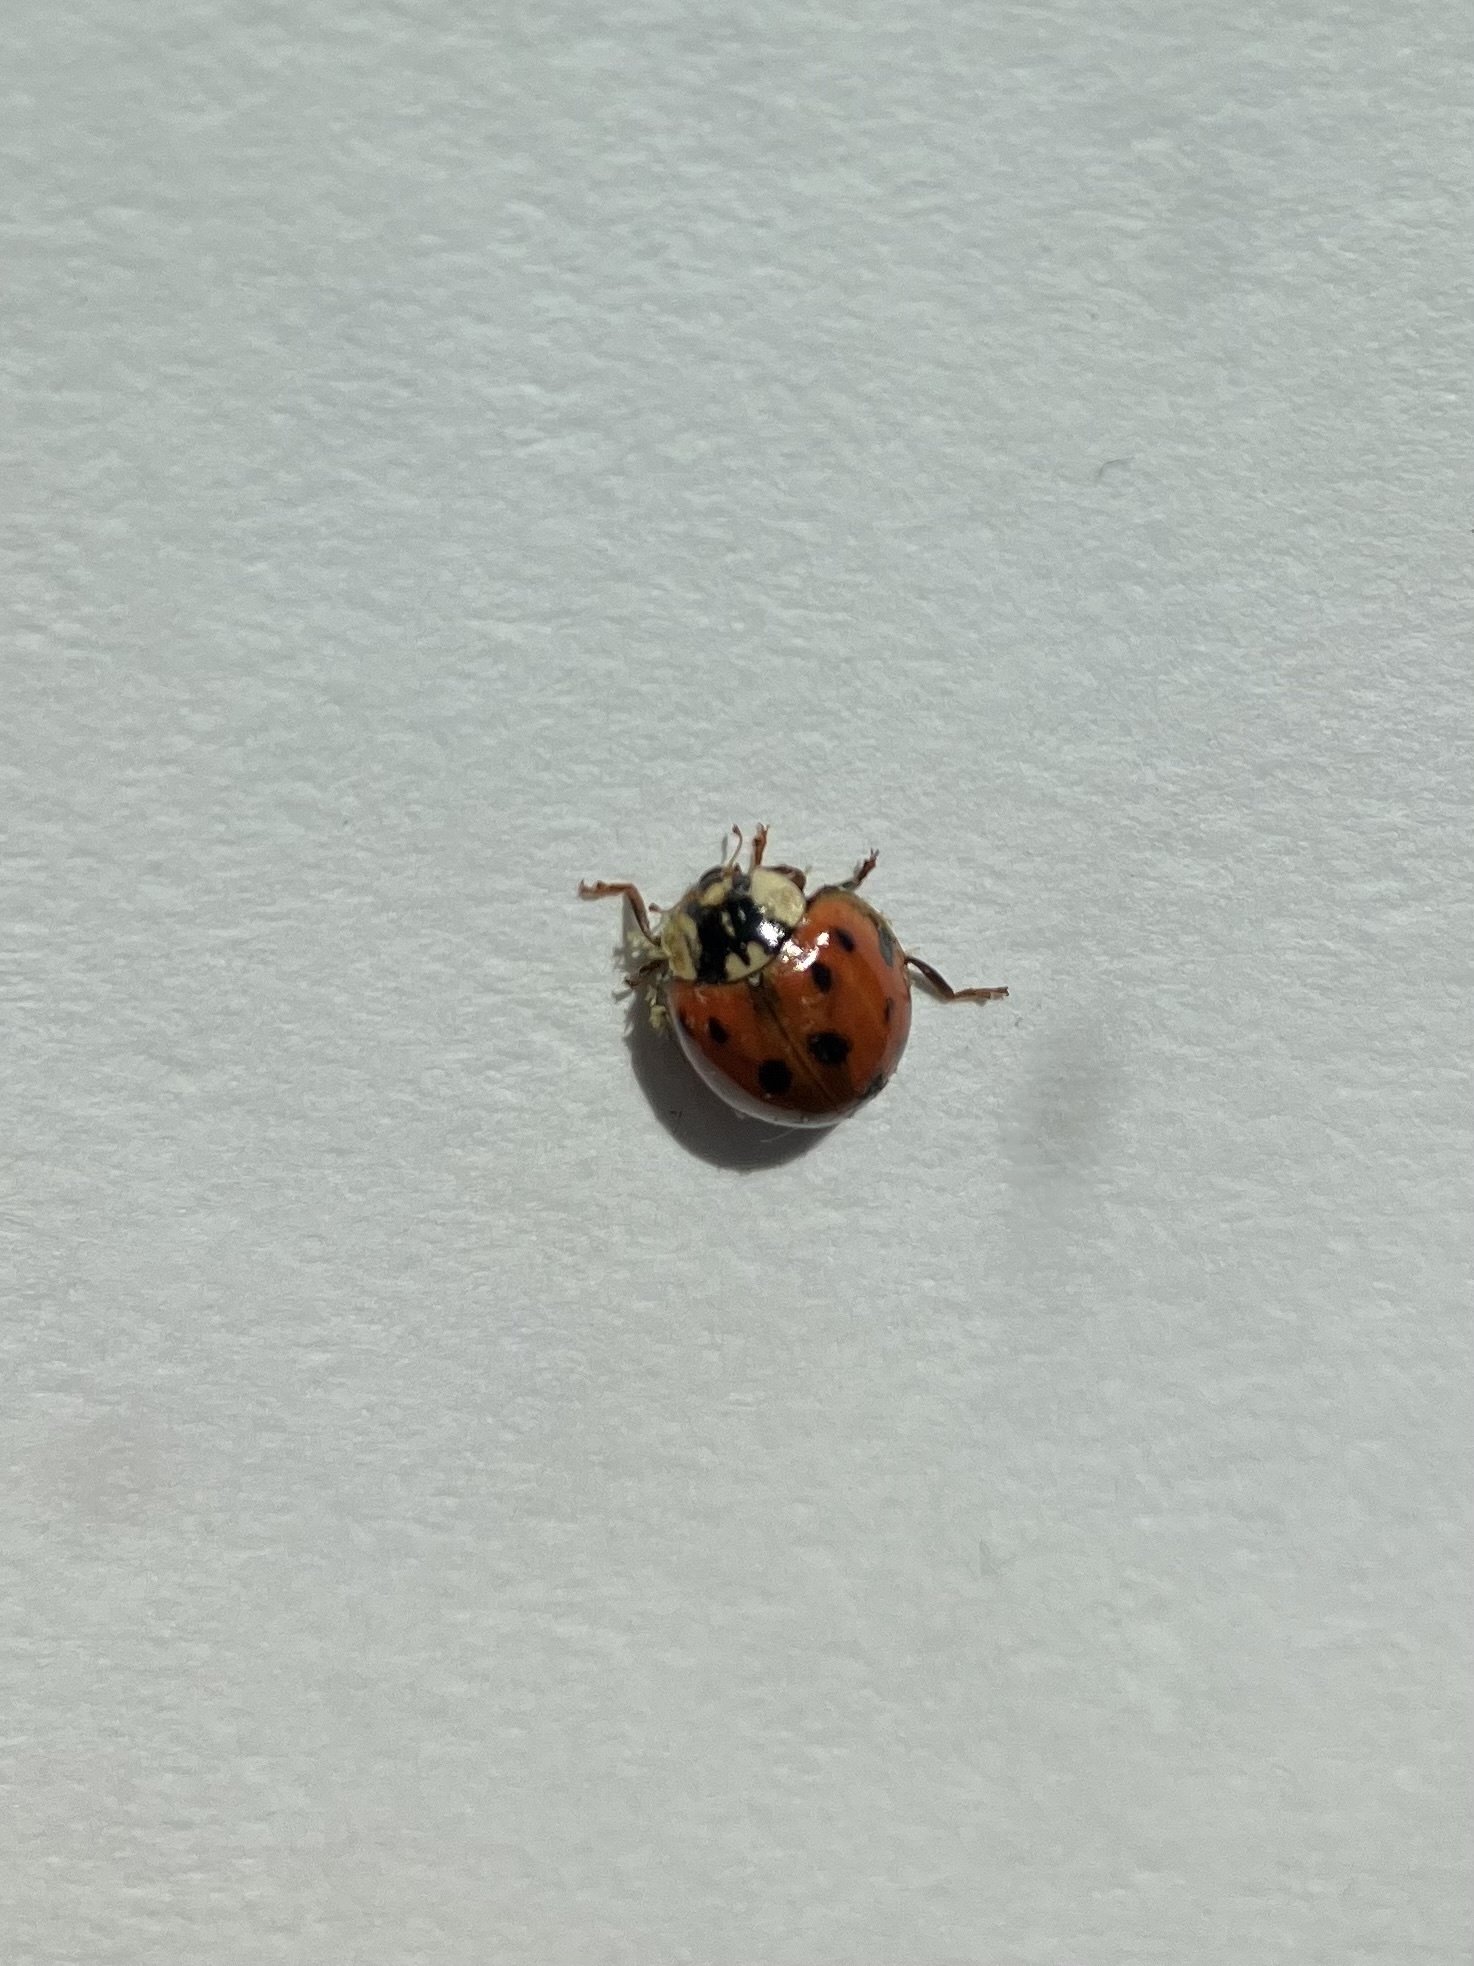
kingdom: Animalia
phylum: Arthropoda
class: Insecta
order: Coleoptera
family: Coccinellidae
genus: Harmonia
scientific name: Harmonia axyridis
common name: Harlequin ladybird
